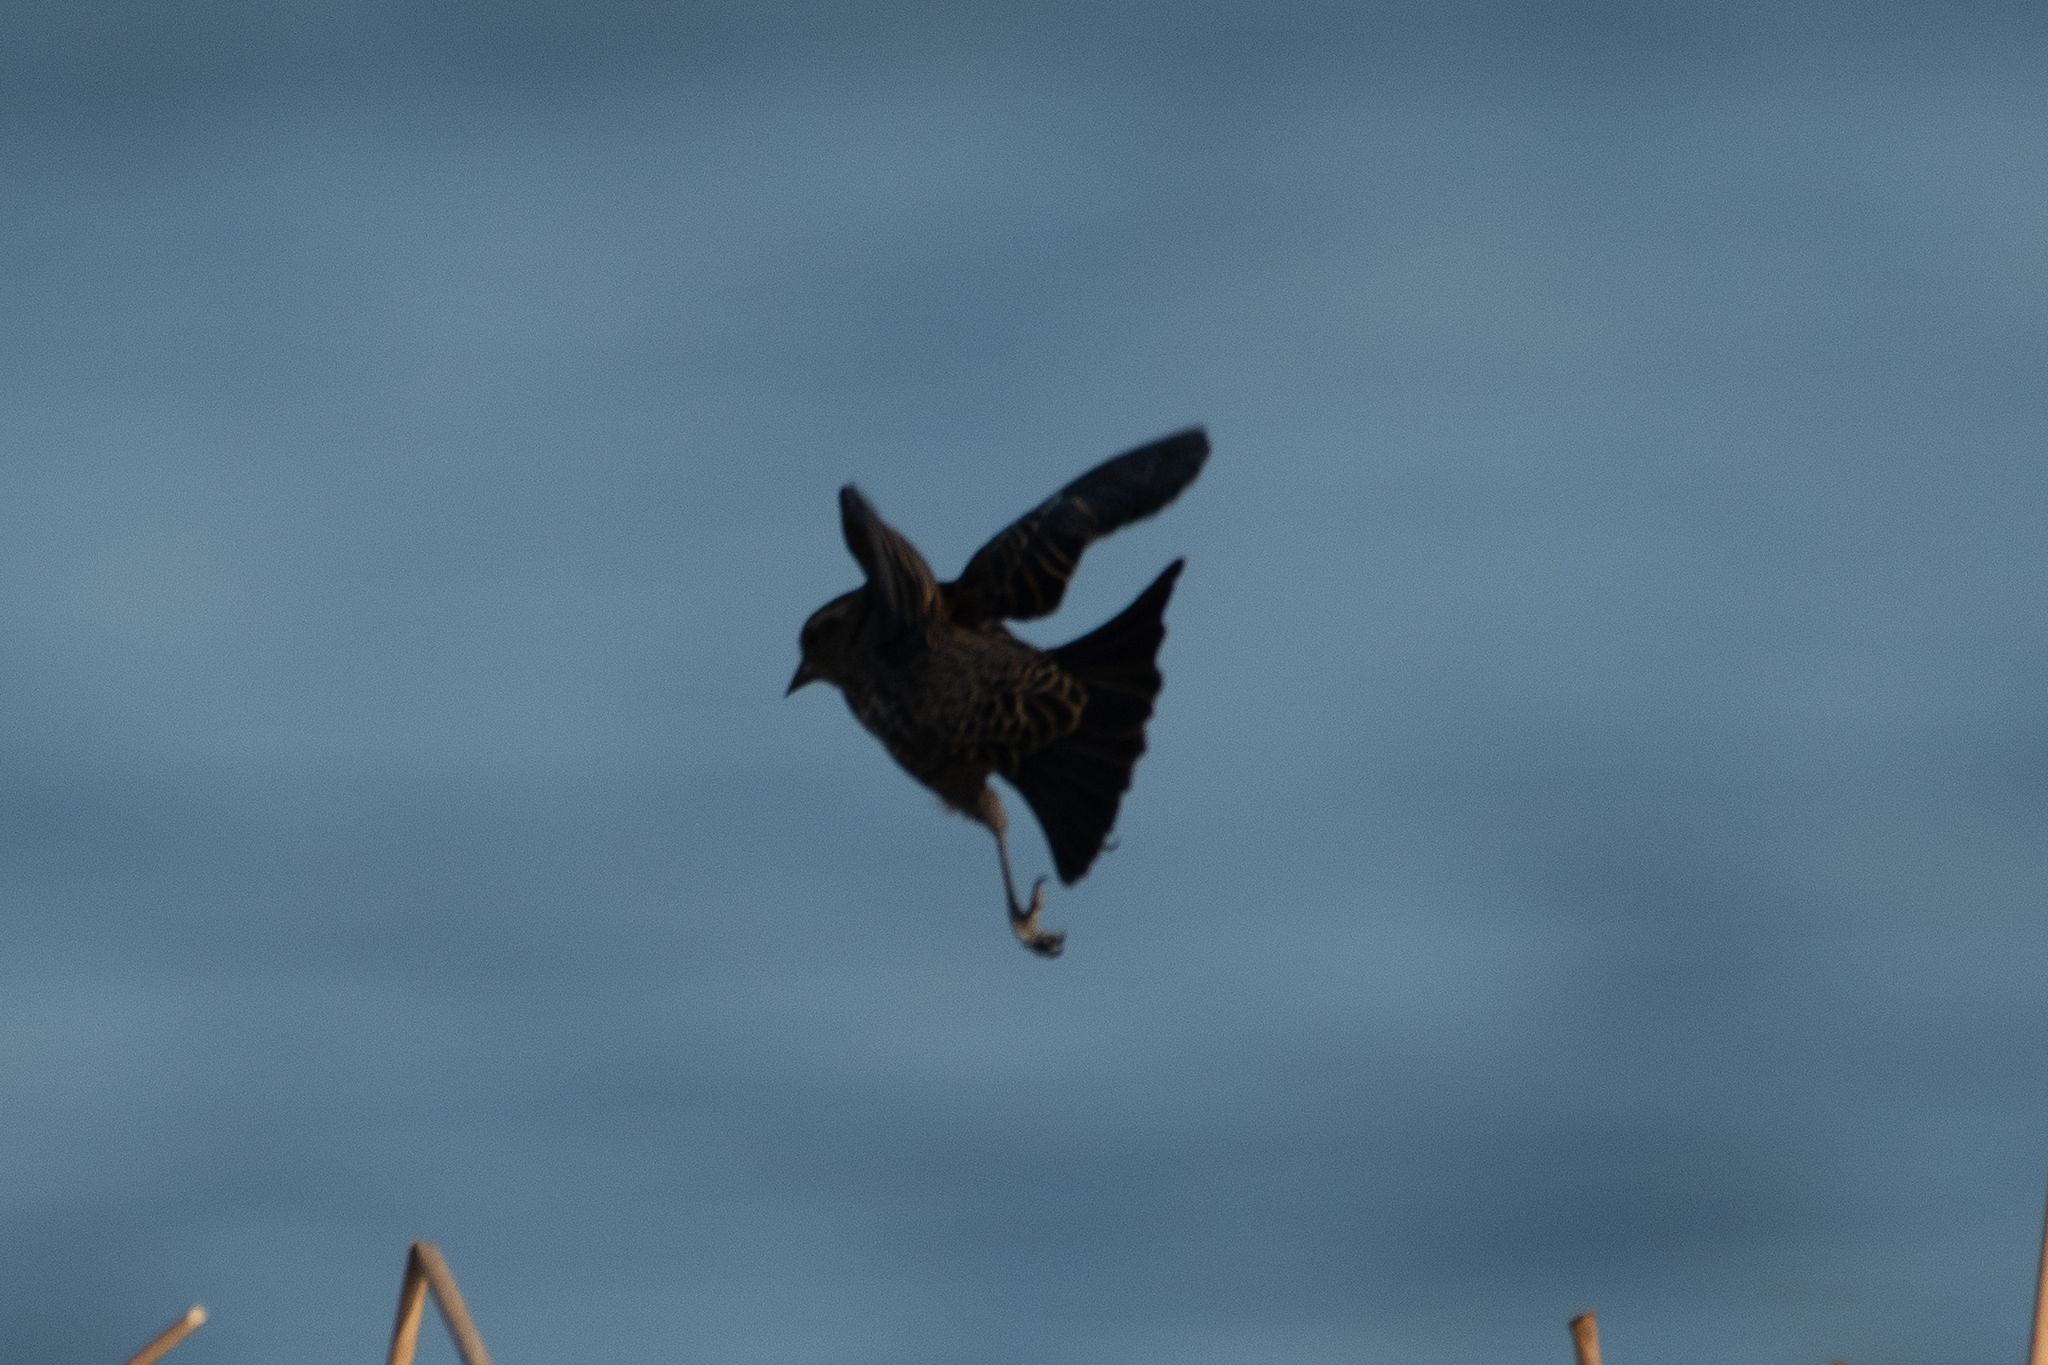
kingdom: Animalia
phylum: Chordata
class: Aves
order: Passeriformes
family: Icteridae
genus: Agelaius
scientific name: Agelaius phoeniceus
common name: Red-winged blackbird
